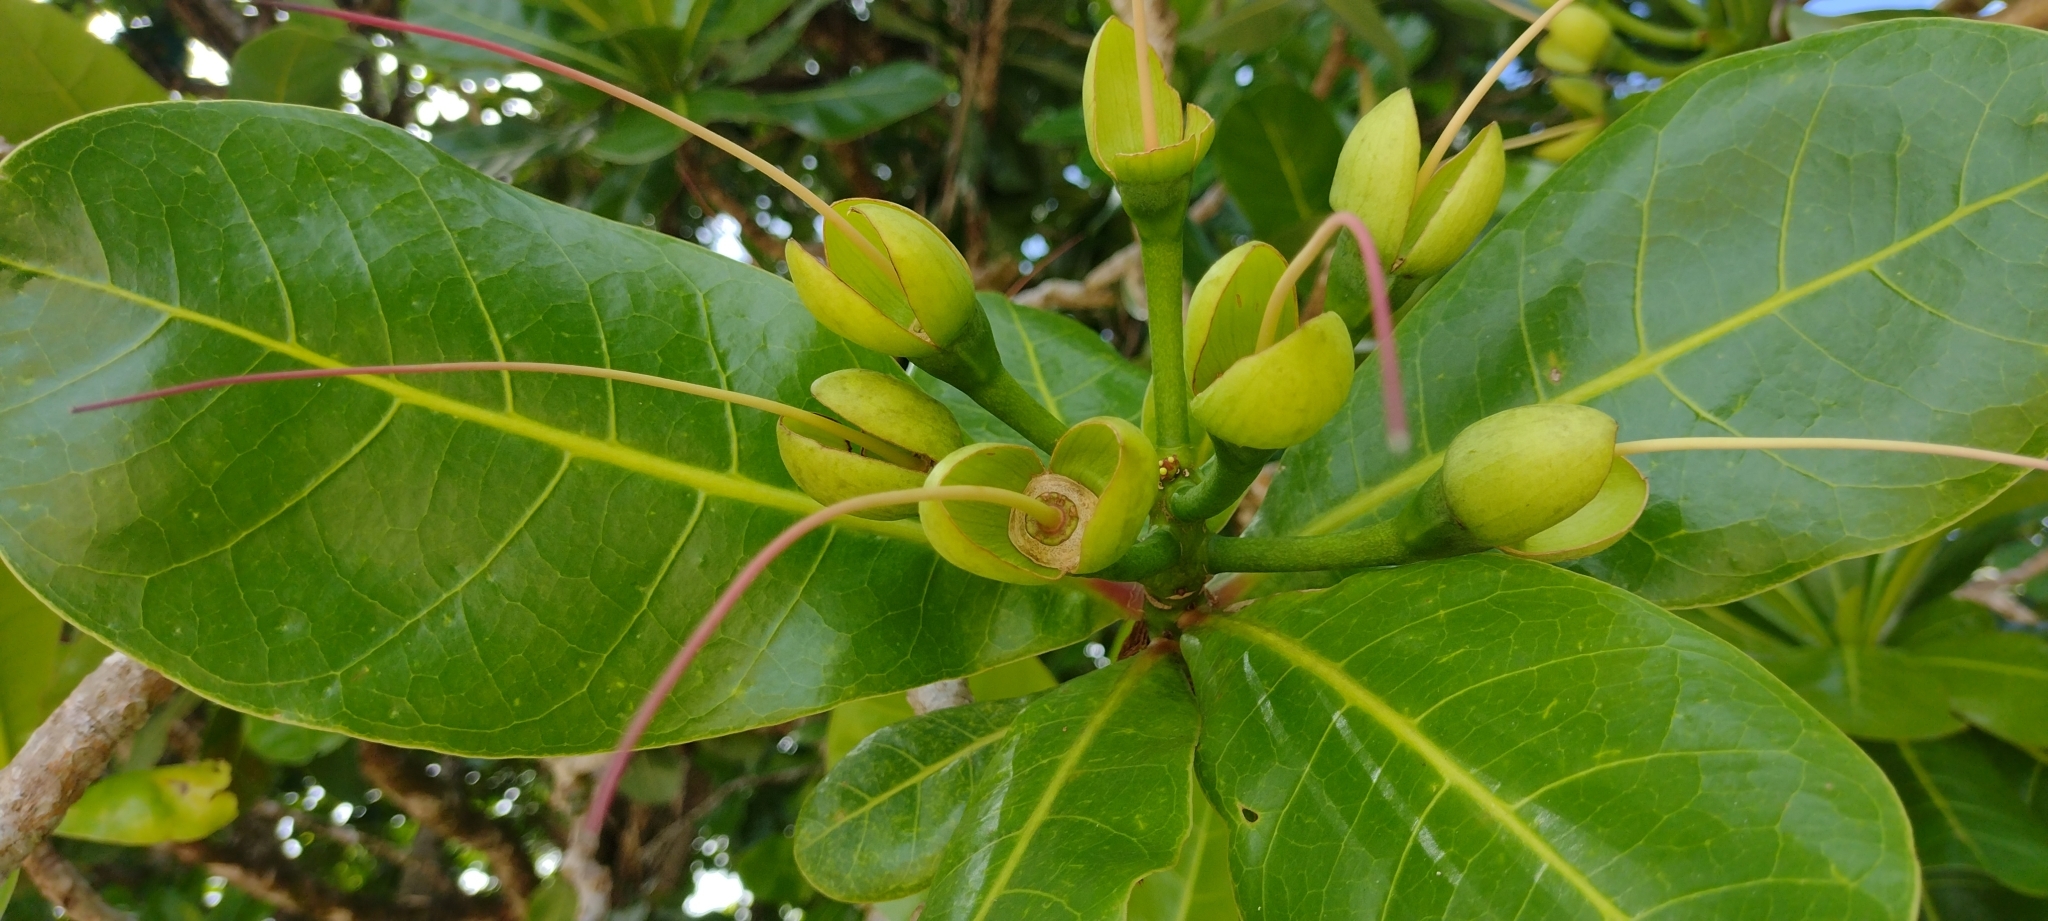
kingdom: Plantae
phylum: Tracheophyta
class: Magnoliopsida
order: Ericales
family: Lecythidaceae
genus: Barringtonia
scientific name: Barringtonia asiatica
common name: Mango-pine
